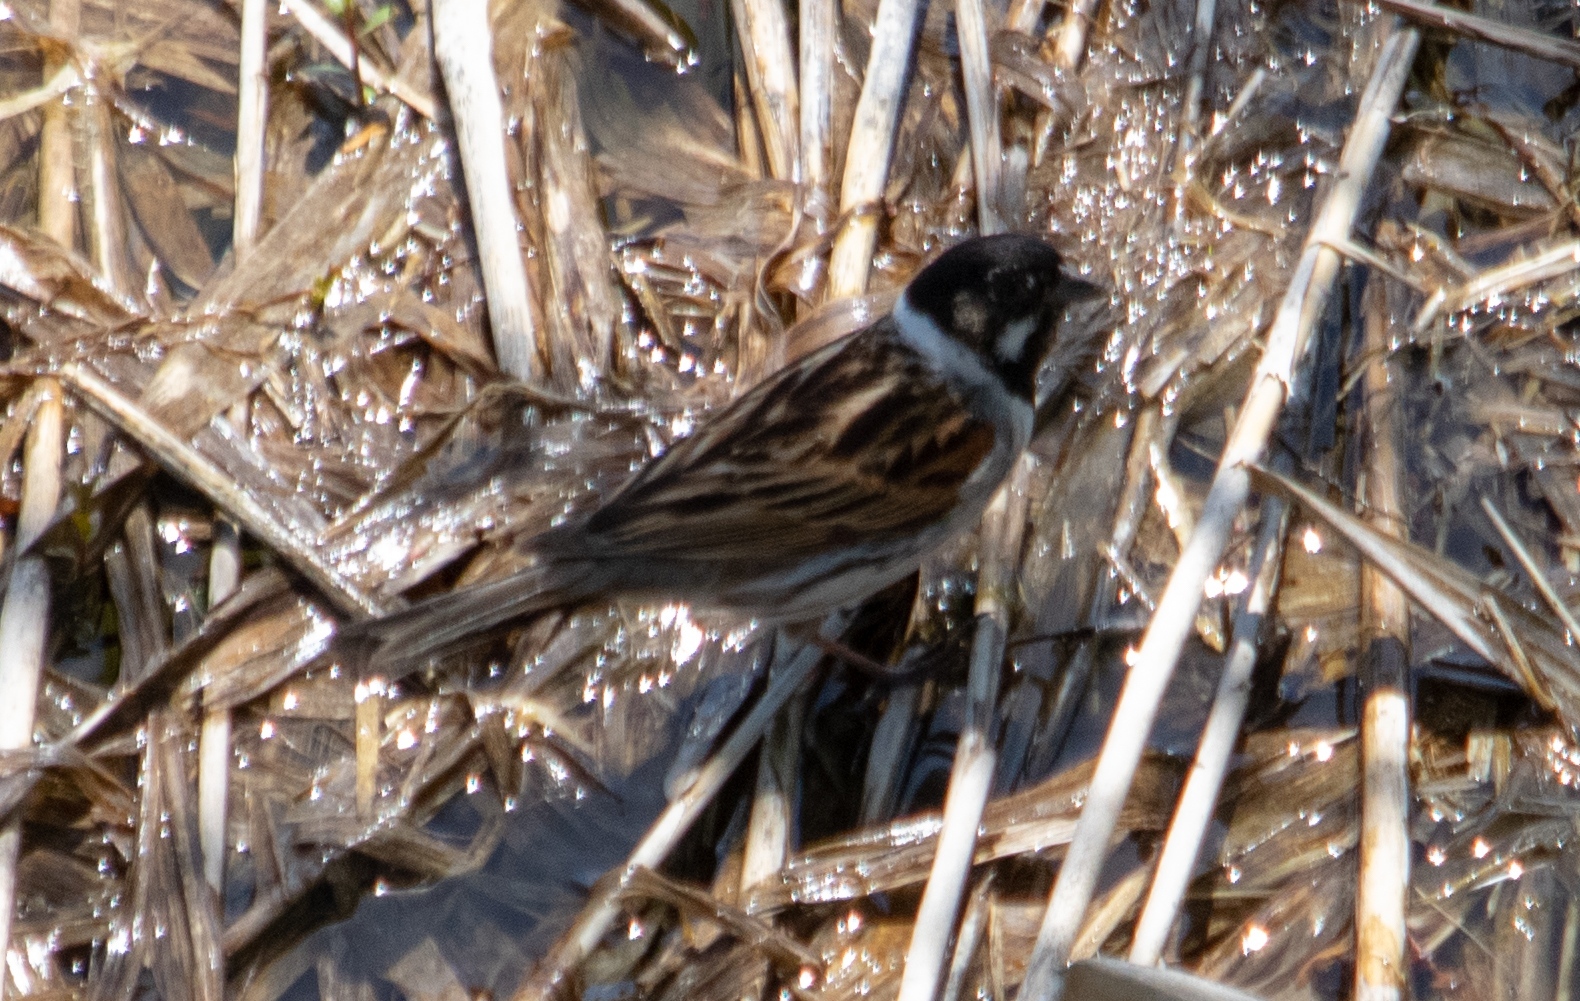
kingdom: Animalia
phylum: Chordata
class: Aves
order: Passeriformes
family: Emberizidae
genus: Emberiza
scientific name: Emberiza schoeniclus
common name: Reed bunting
